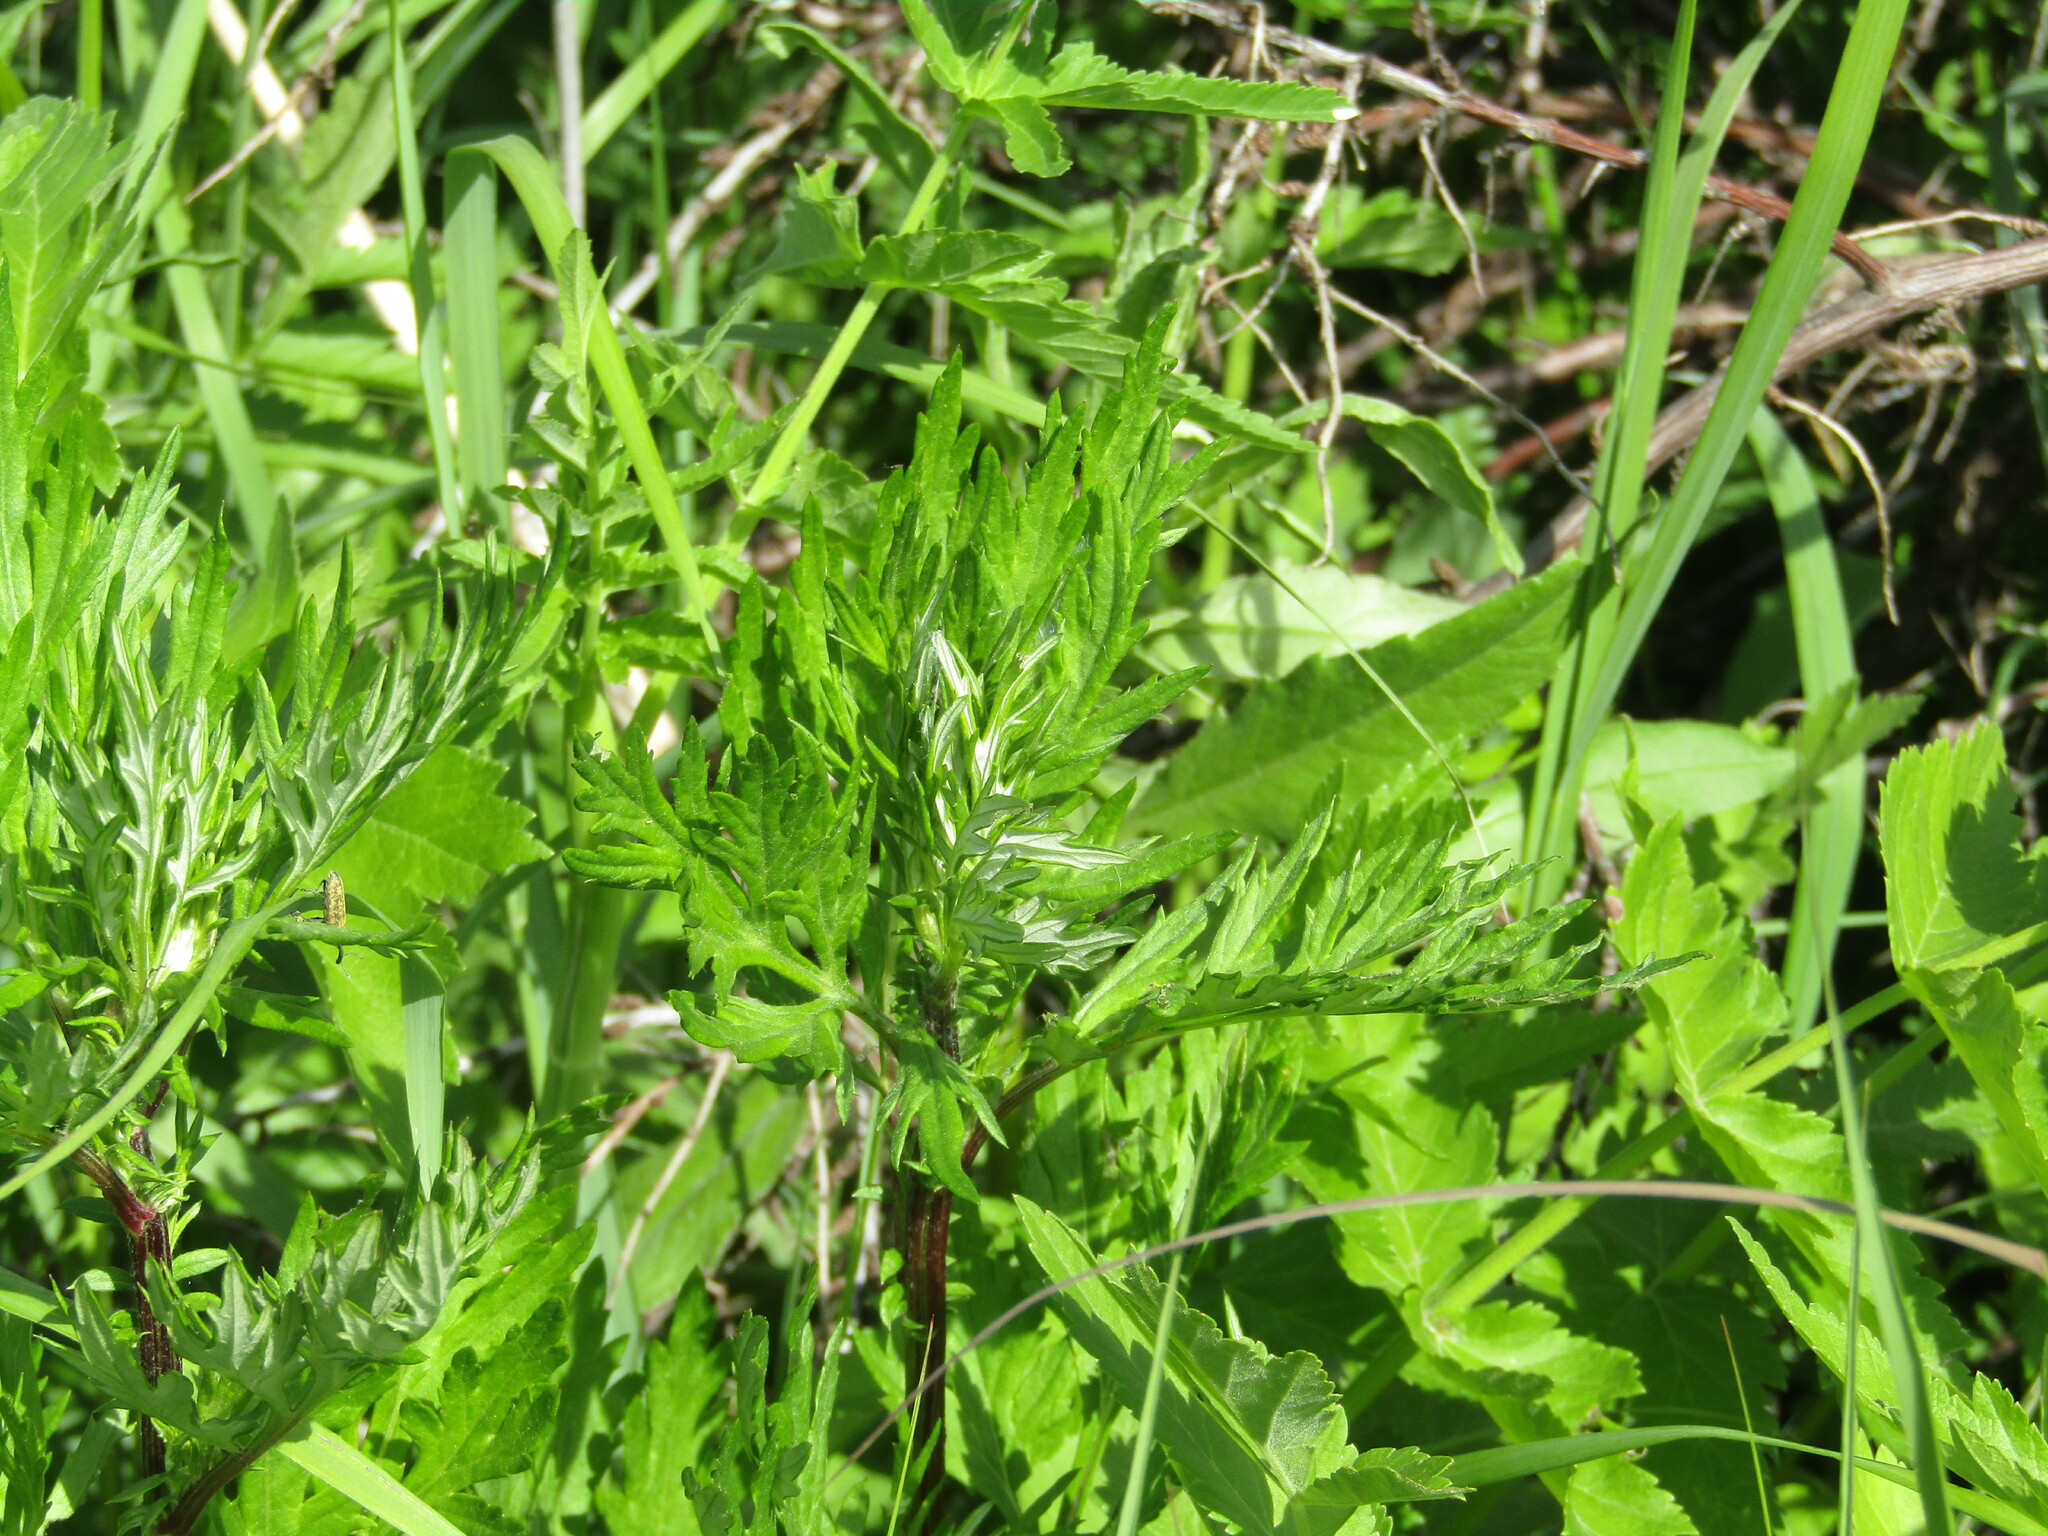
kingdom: Plantae
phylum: Tracheophyta
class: Magnoliopsida
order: Asterales
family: Asteraceae
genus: Artemisia
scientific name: Artemisia vulgaris
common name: Mugwort
